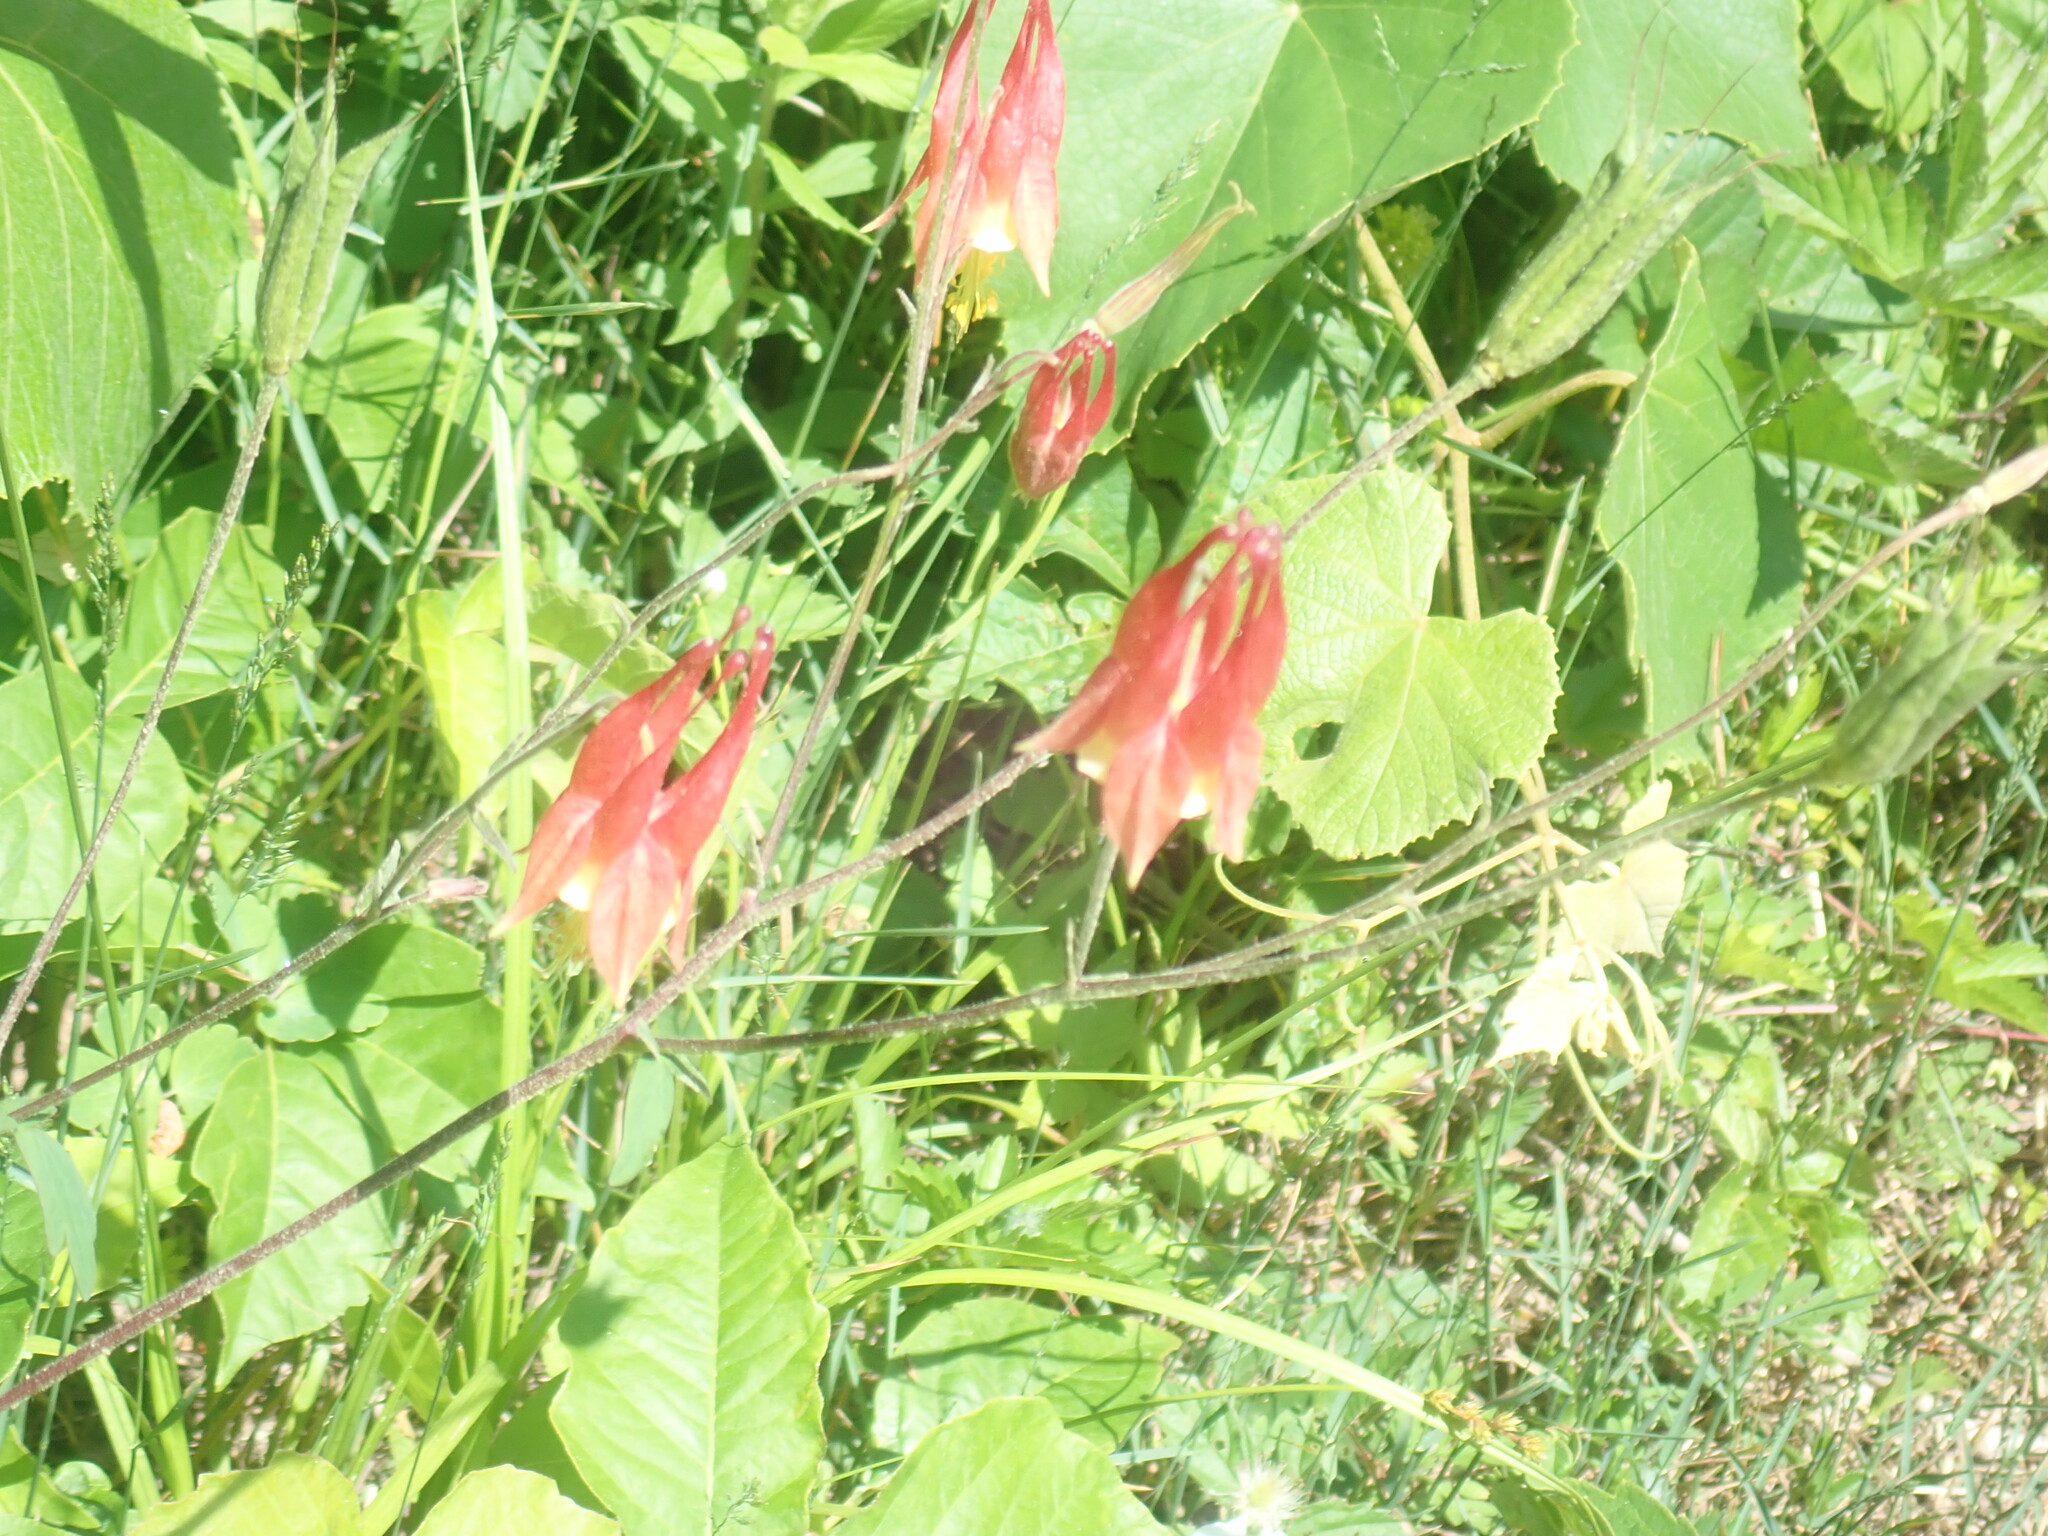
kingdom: Plantae
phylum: Tracheophyta
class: Magnoliopsida
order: Ranunculales
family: Ranunculaceae
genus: Aquilegia
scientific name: Aquilegia canadensis
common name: American columbine
